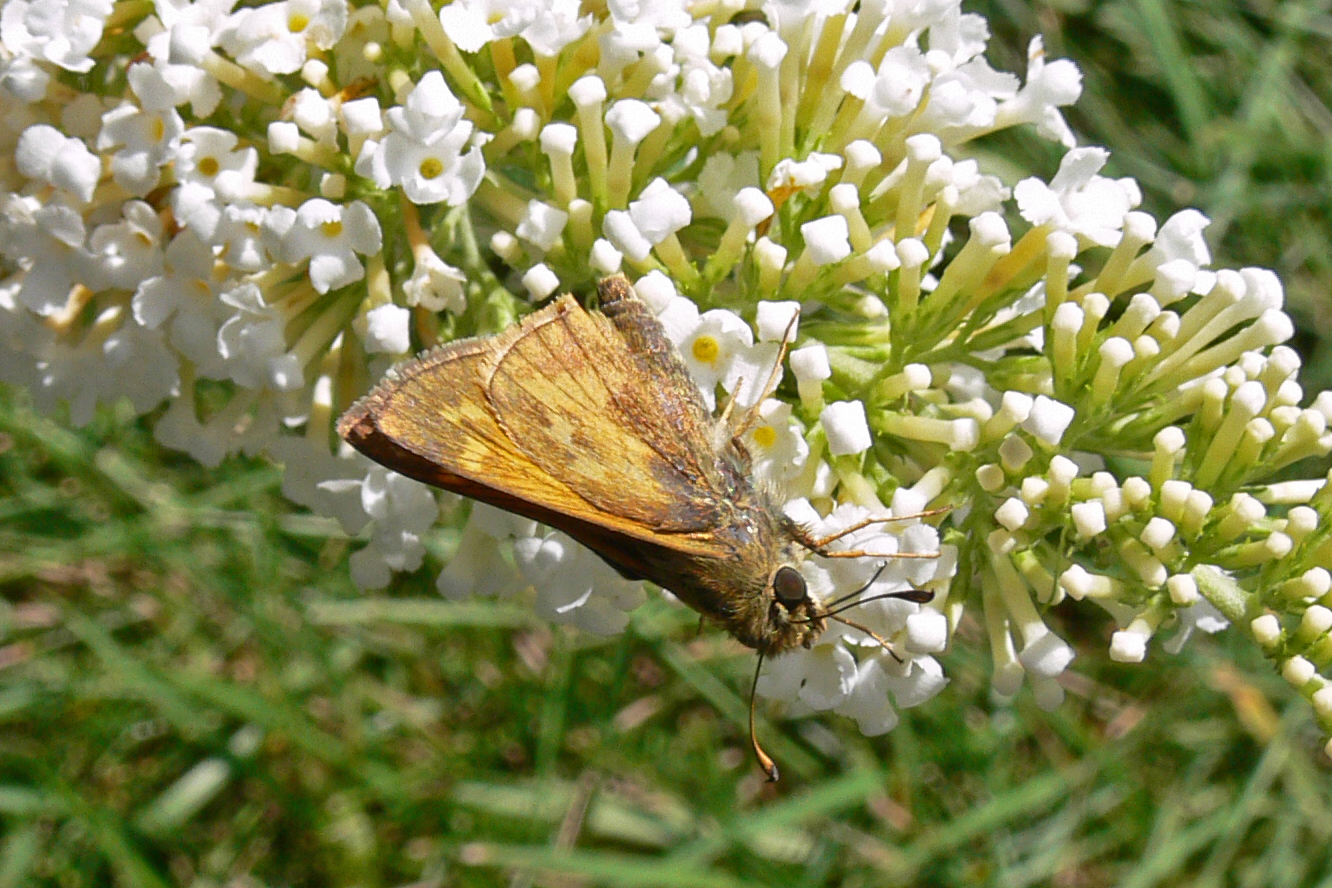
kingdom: Animalia
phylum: Arthropoda
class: Insecta
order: Lepidoptera
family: Hesperiidae
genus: Atalopedes
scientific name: Atalopedes
